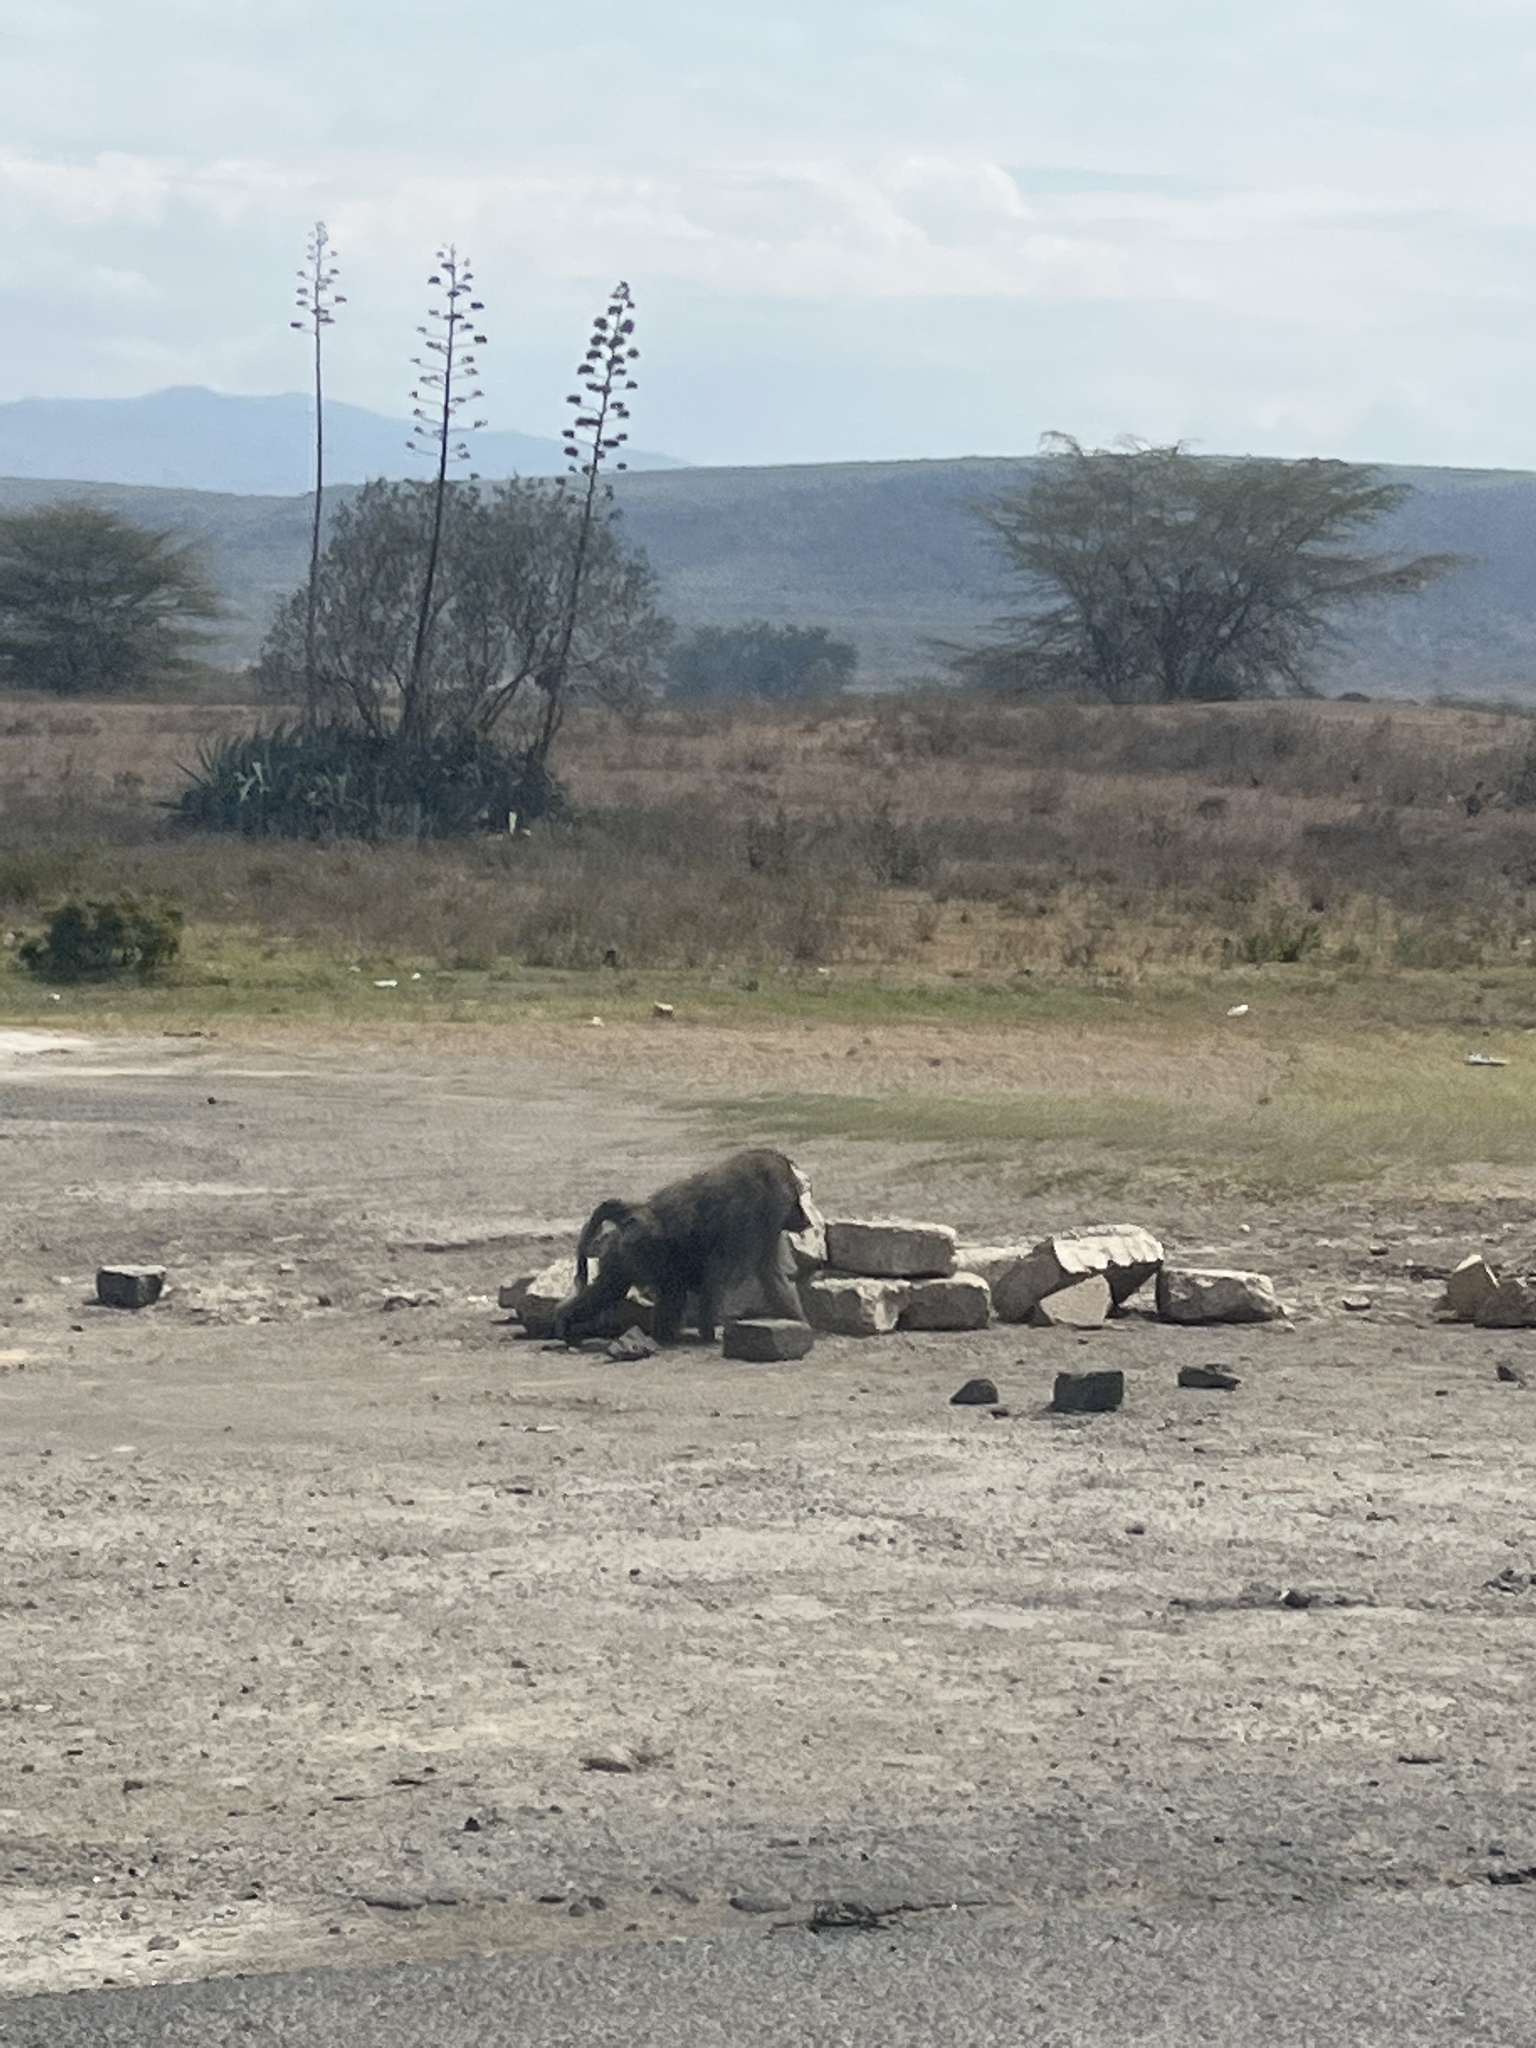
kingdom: Animalia
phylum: Chordata
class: Mammalia
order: Primates
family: Cercopithecidae
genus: Papio
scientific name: Papio anubis
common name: Olive baboon
